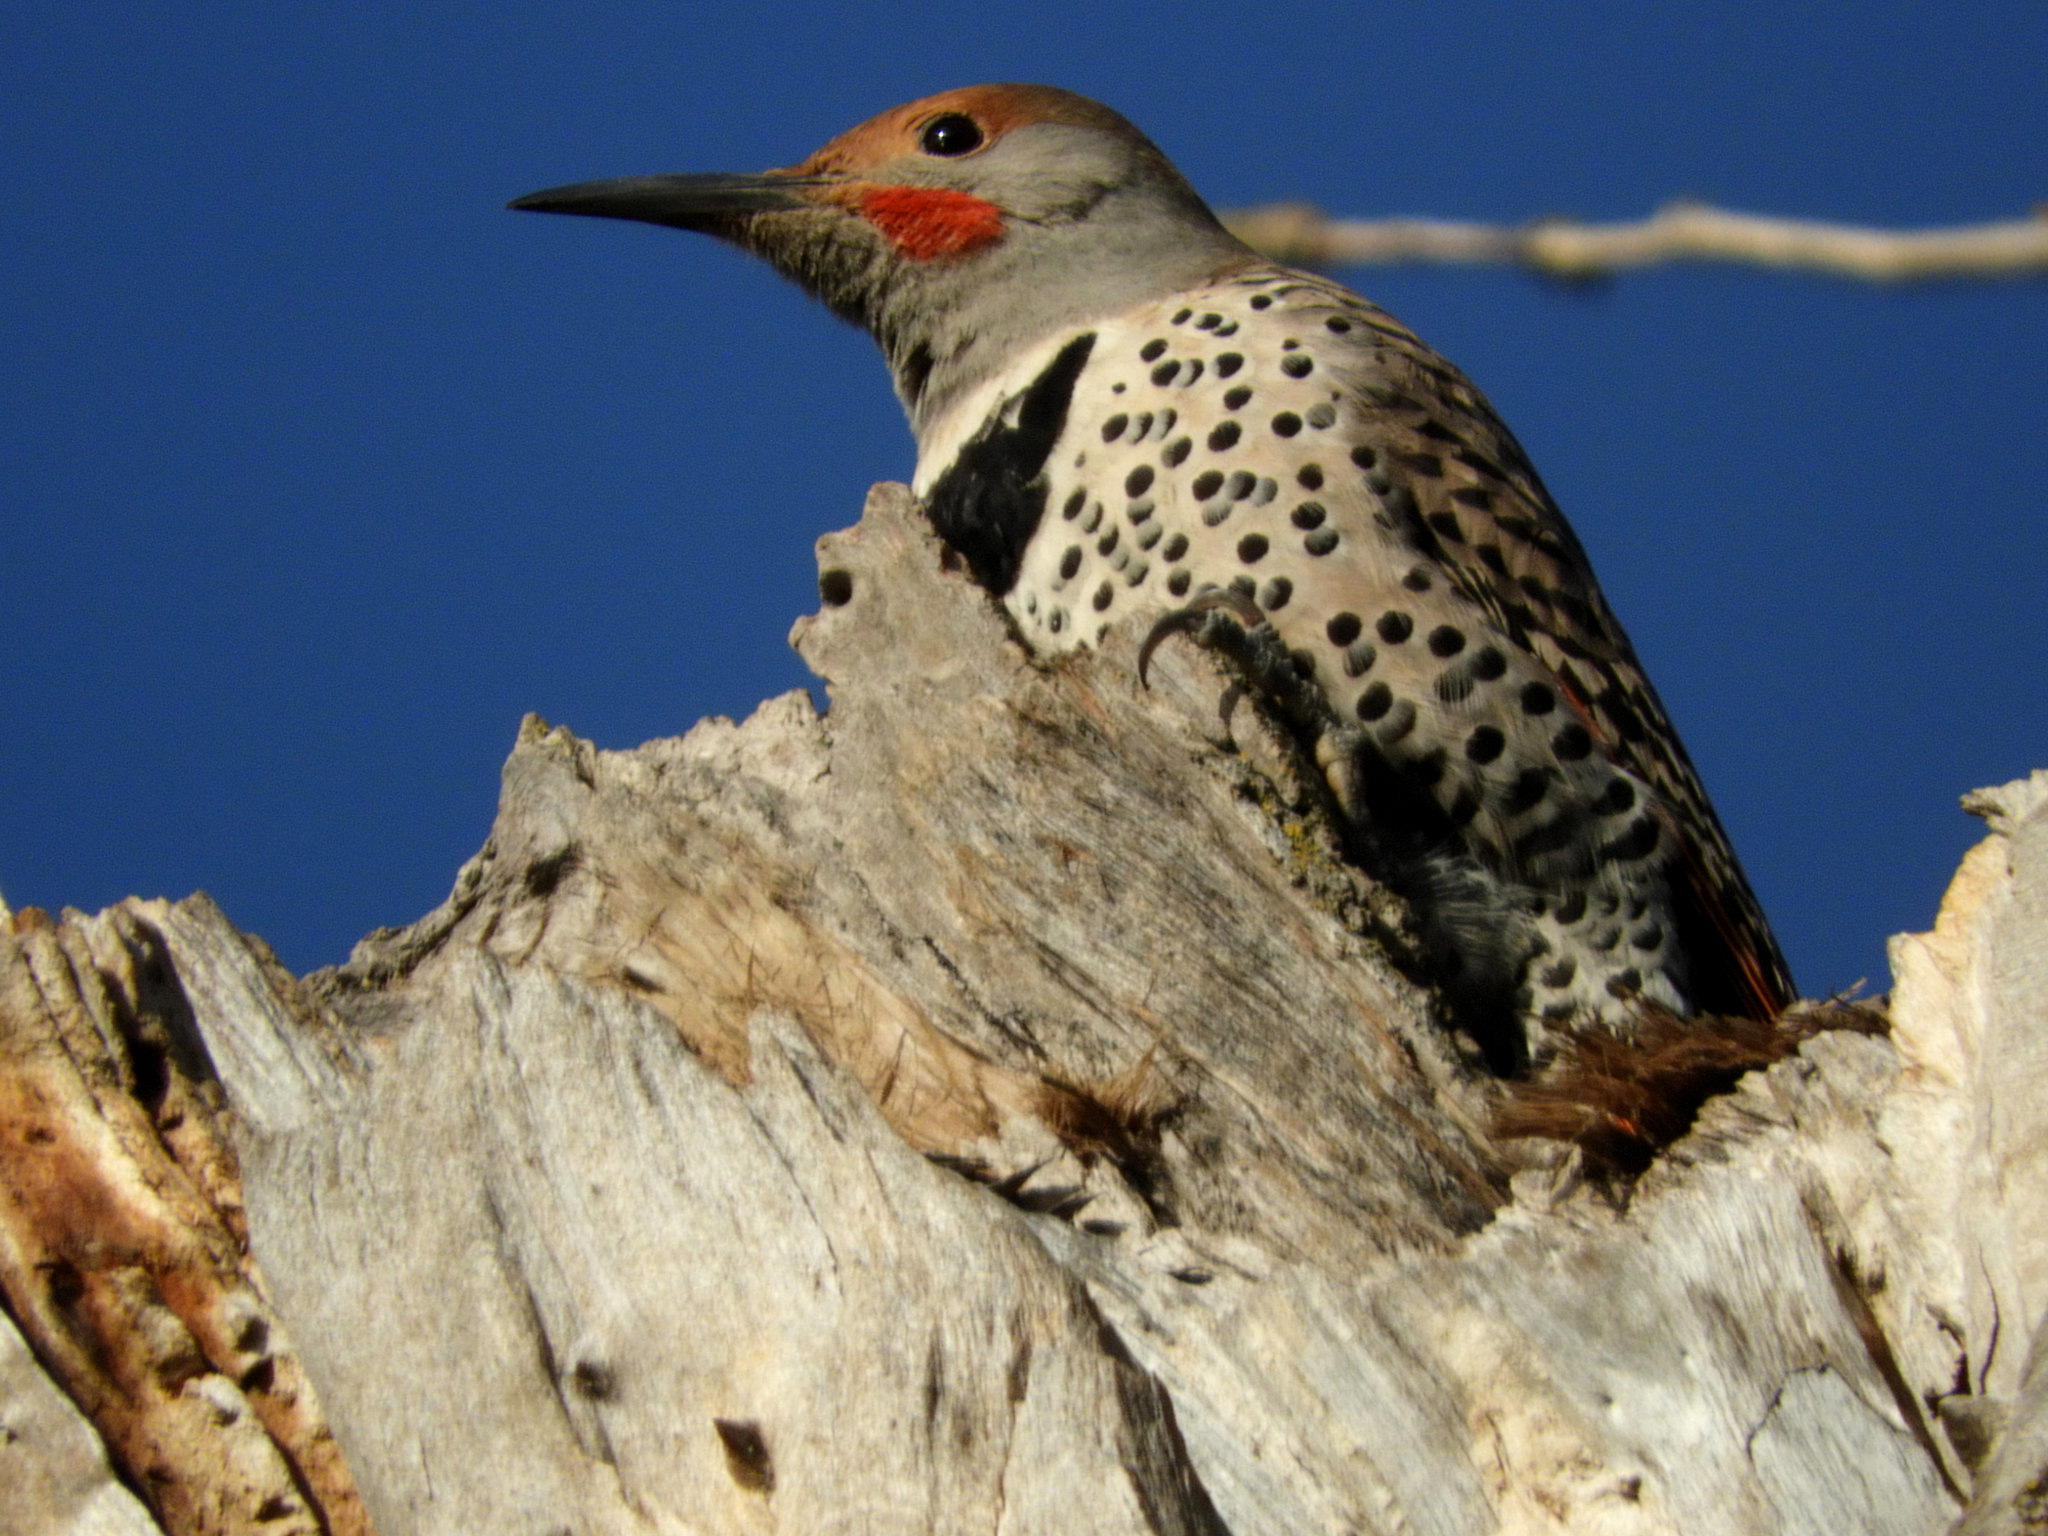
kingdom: Animalia
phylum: Chordata
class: Aves
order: Piciformes
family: Picidae
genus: Colaptes
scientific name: Colaptes auratus
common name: Northern flicker
